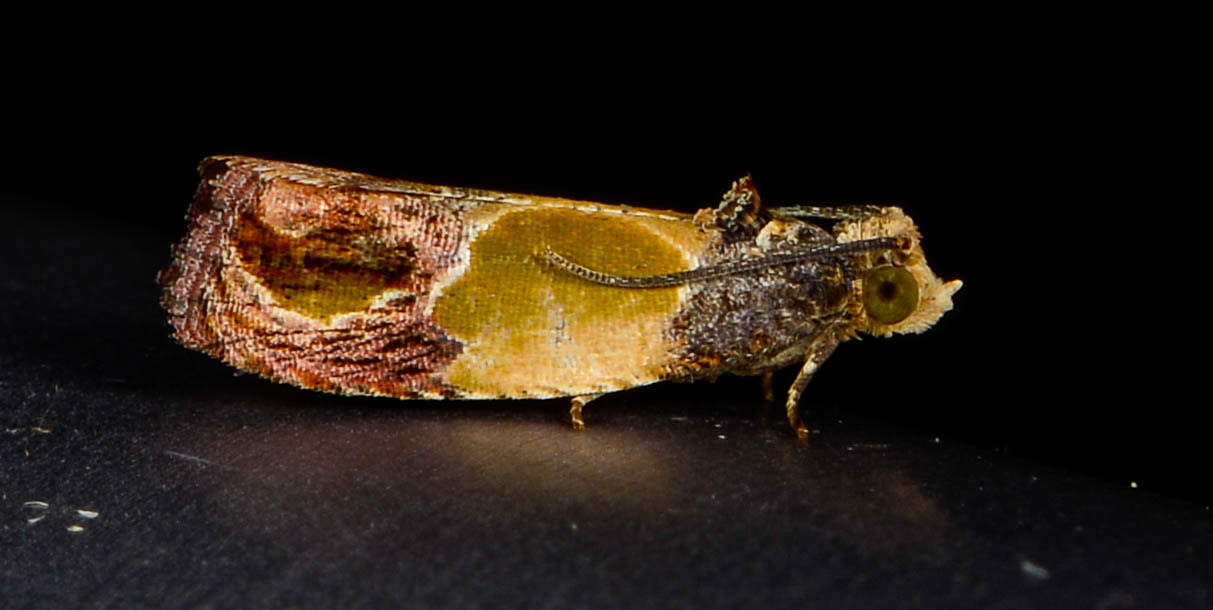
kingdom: Animalia
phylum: Arthropoda
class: Insecta
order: Lepidoptera
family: Tortricidae
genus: Eumarozia
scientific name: Eumarozia malachitana
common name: Sculptured moth
